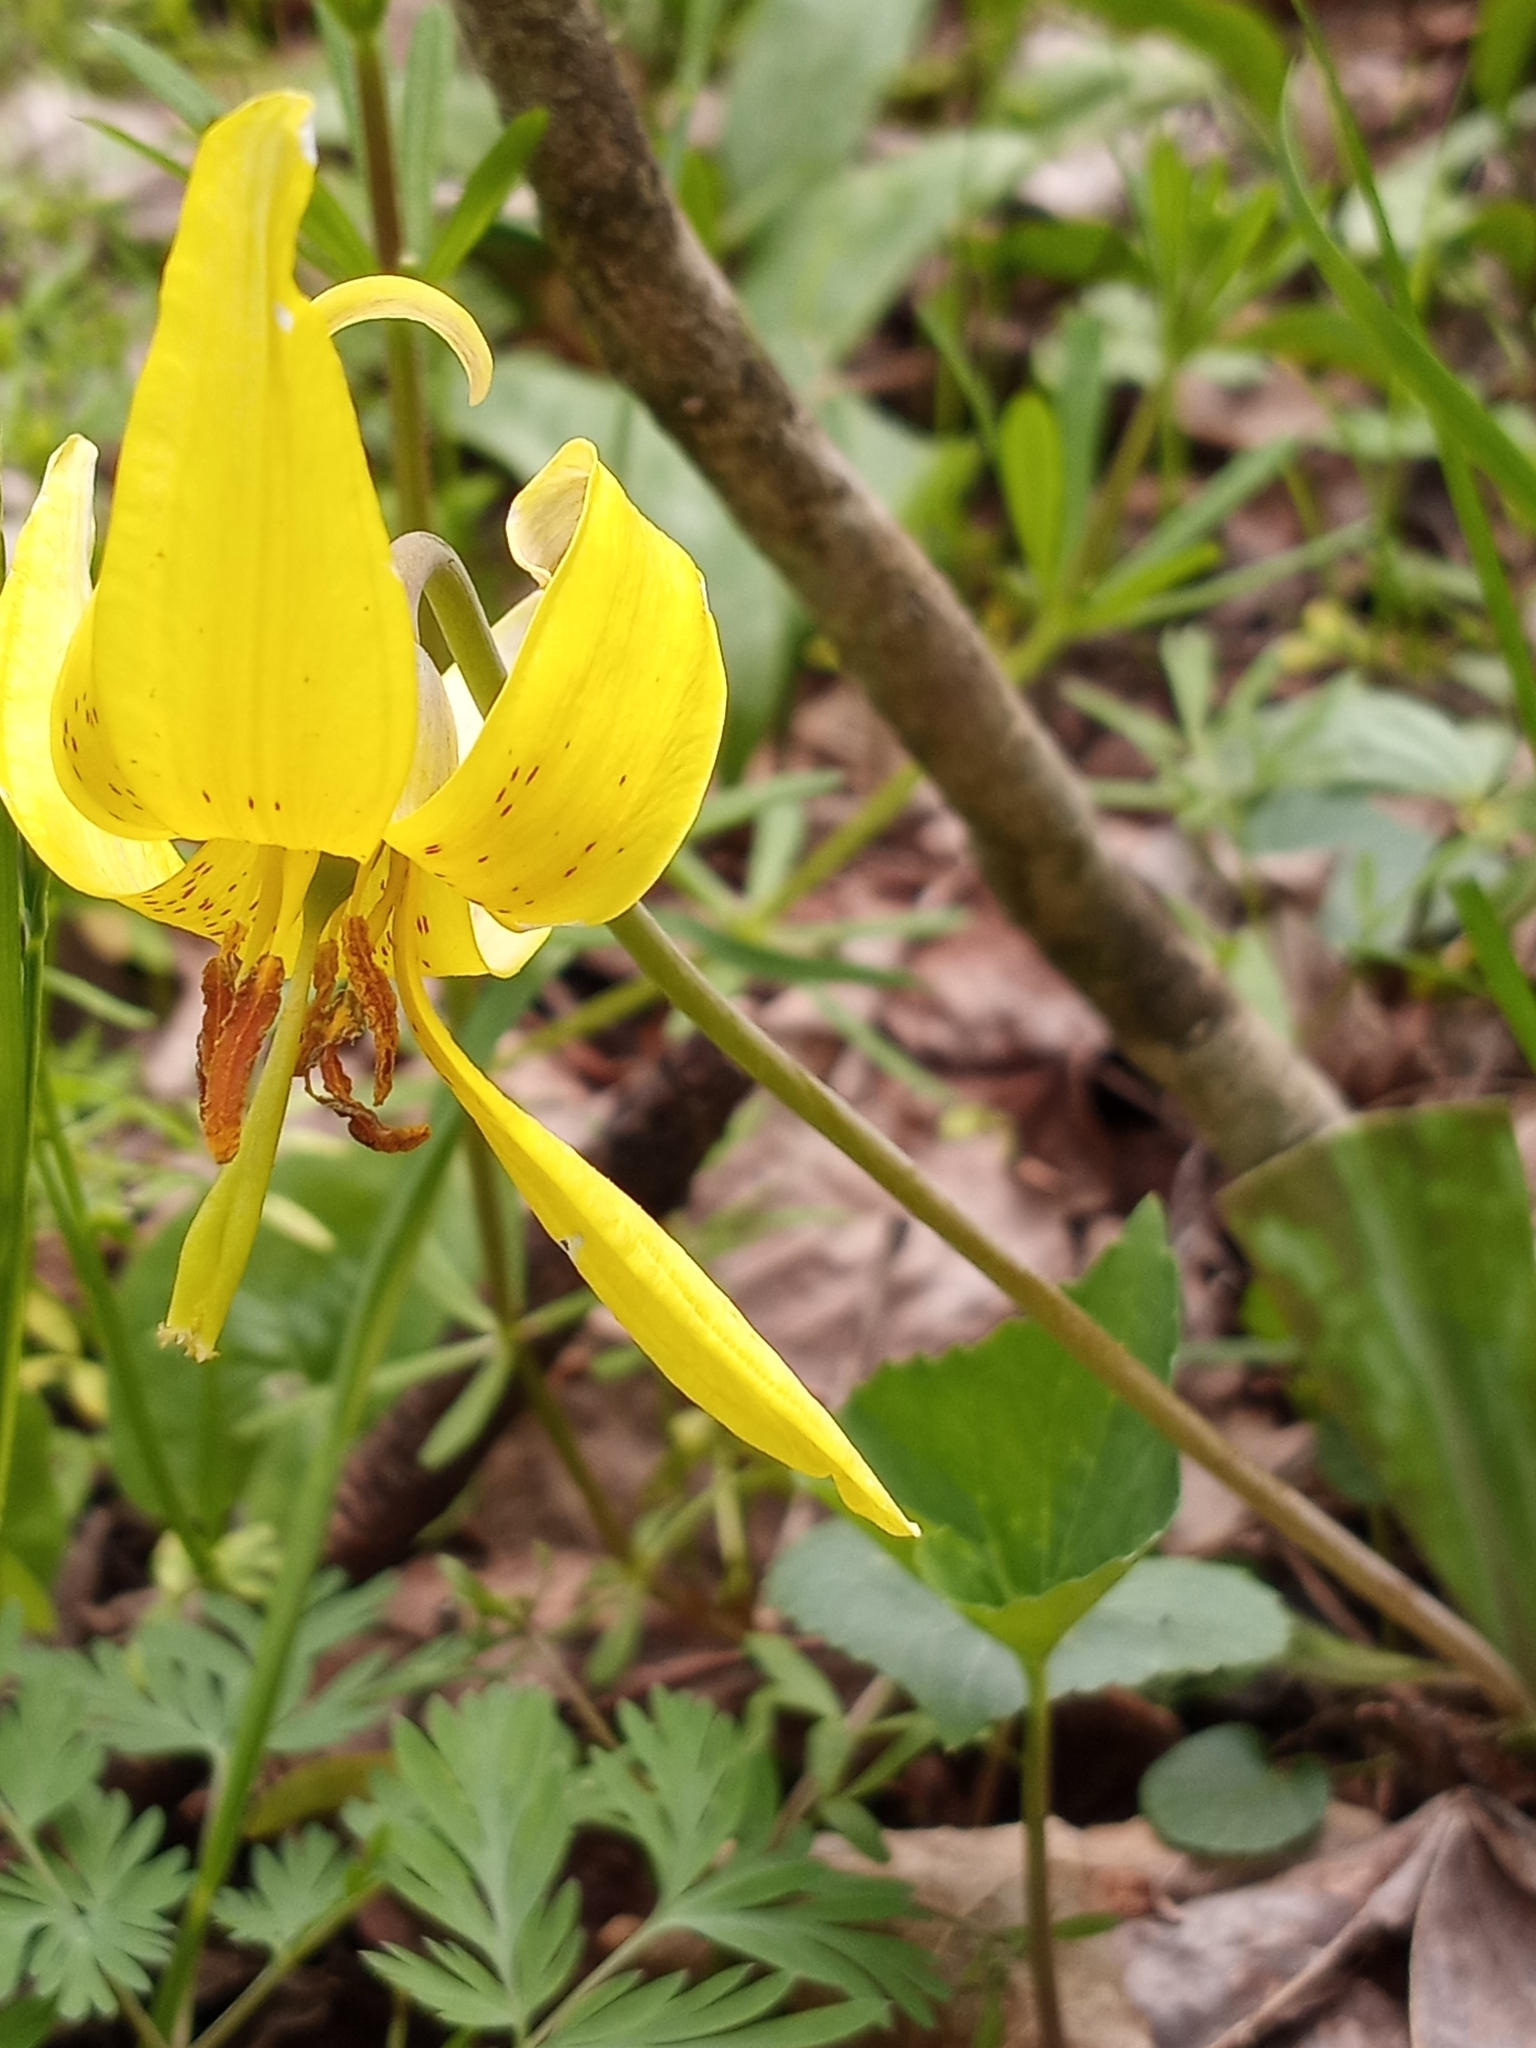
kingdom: Plantae
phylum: Tracheophyta
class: Liliopsida
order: Liliales
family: Liliaceae
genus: Erythronium
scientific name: Erythronium americanum
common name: Yellow adder's-tongue
